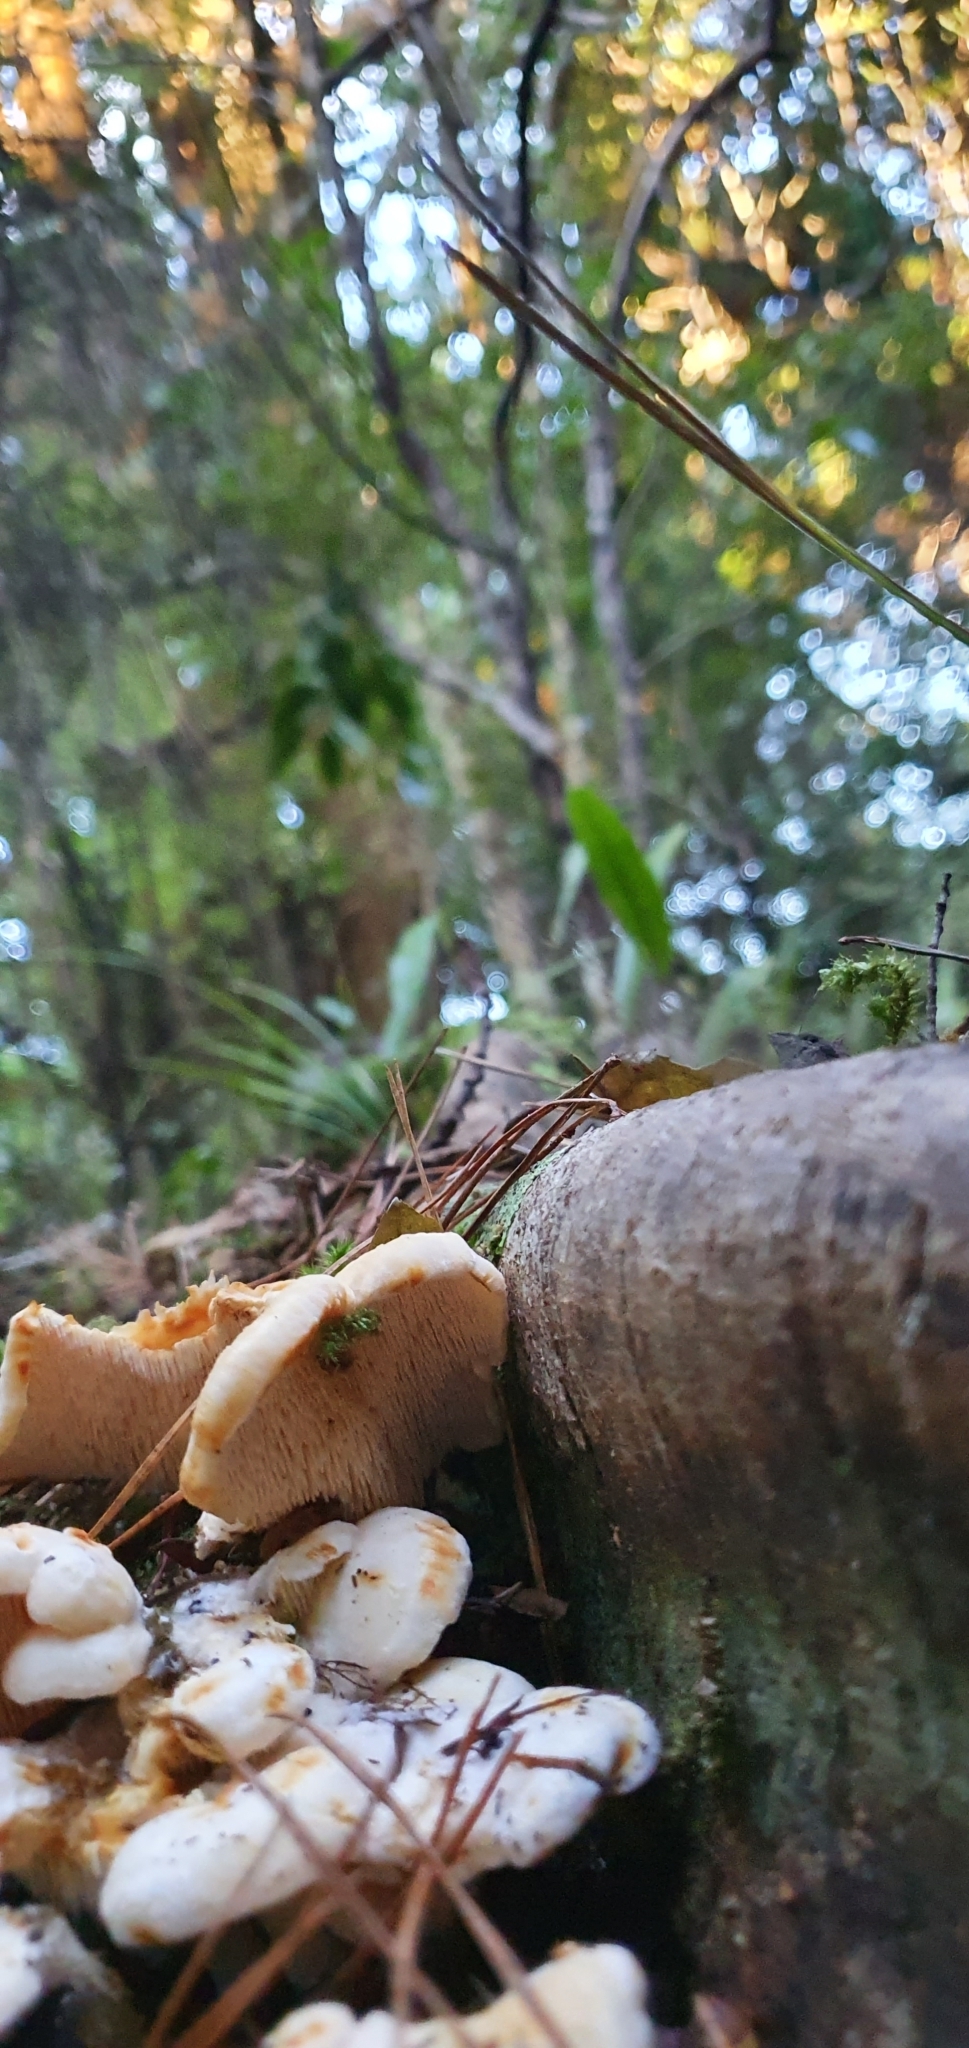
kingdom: Fungi
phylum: Basidiomycota
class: Agaricomycetes
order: Cantharellales
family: Hydnaceae
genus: Hydnum
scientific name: Hydnum ambustum
